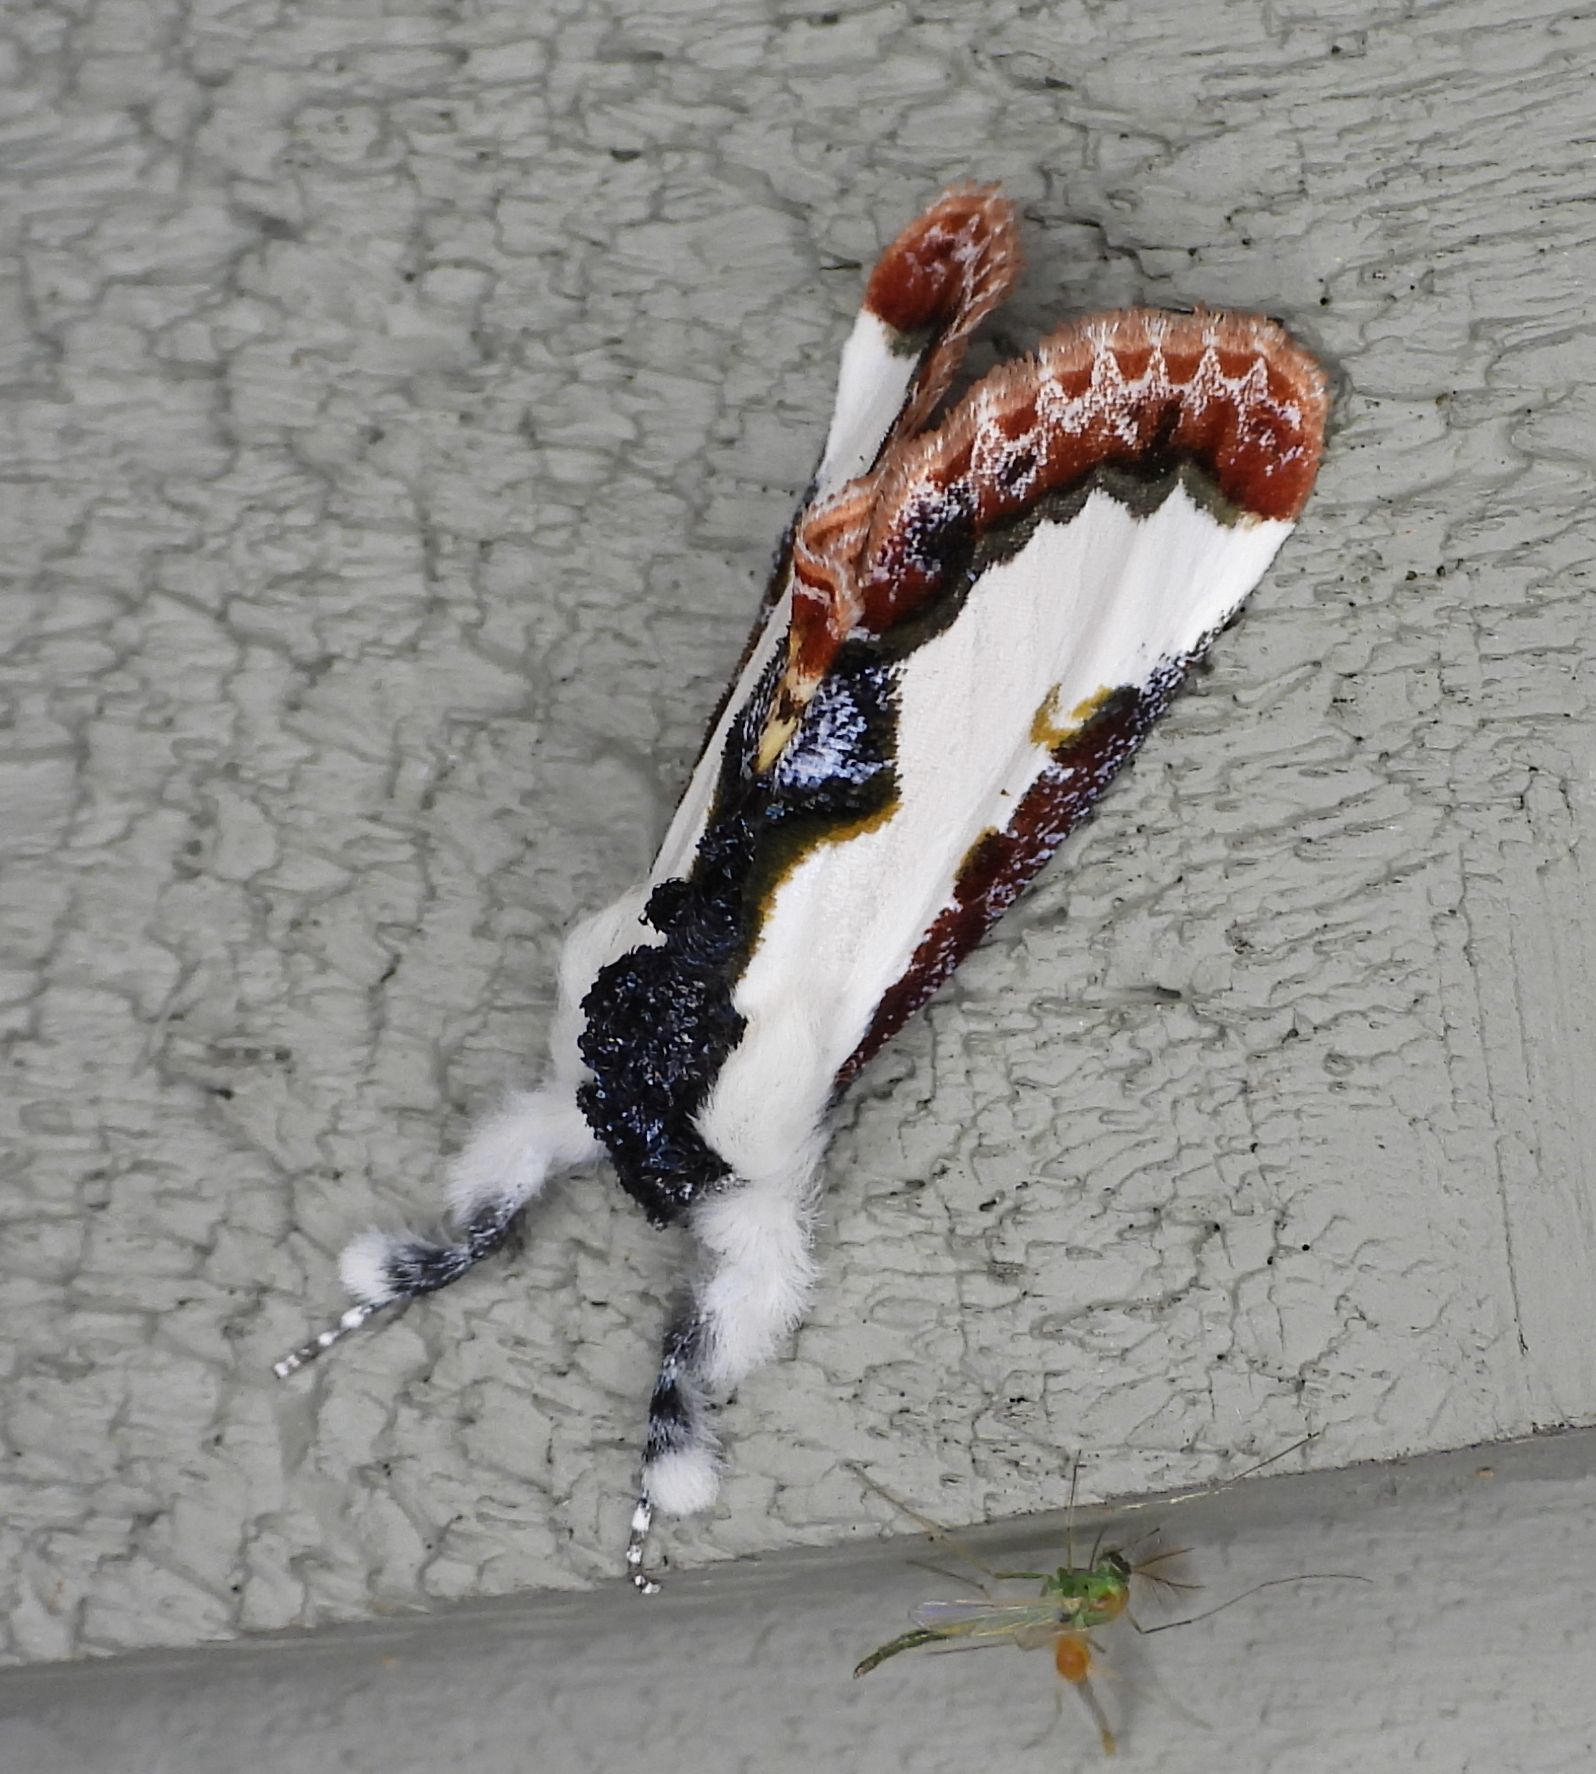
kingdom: Animalia
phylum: Arthropoda
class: Insecta
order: Lepidoptera
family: Noctuidae
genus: Eudryas
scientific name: Eudryas unio
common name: Pearly wood-nymph
